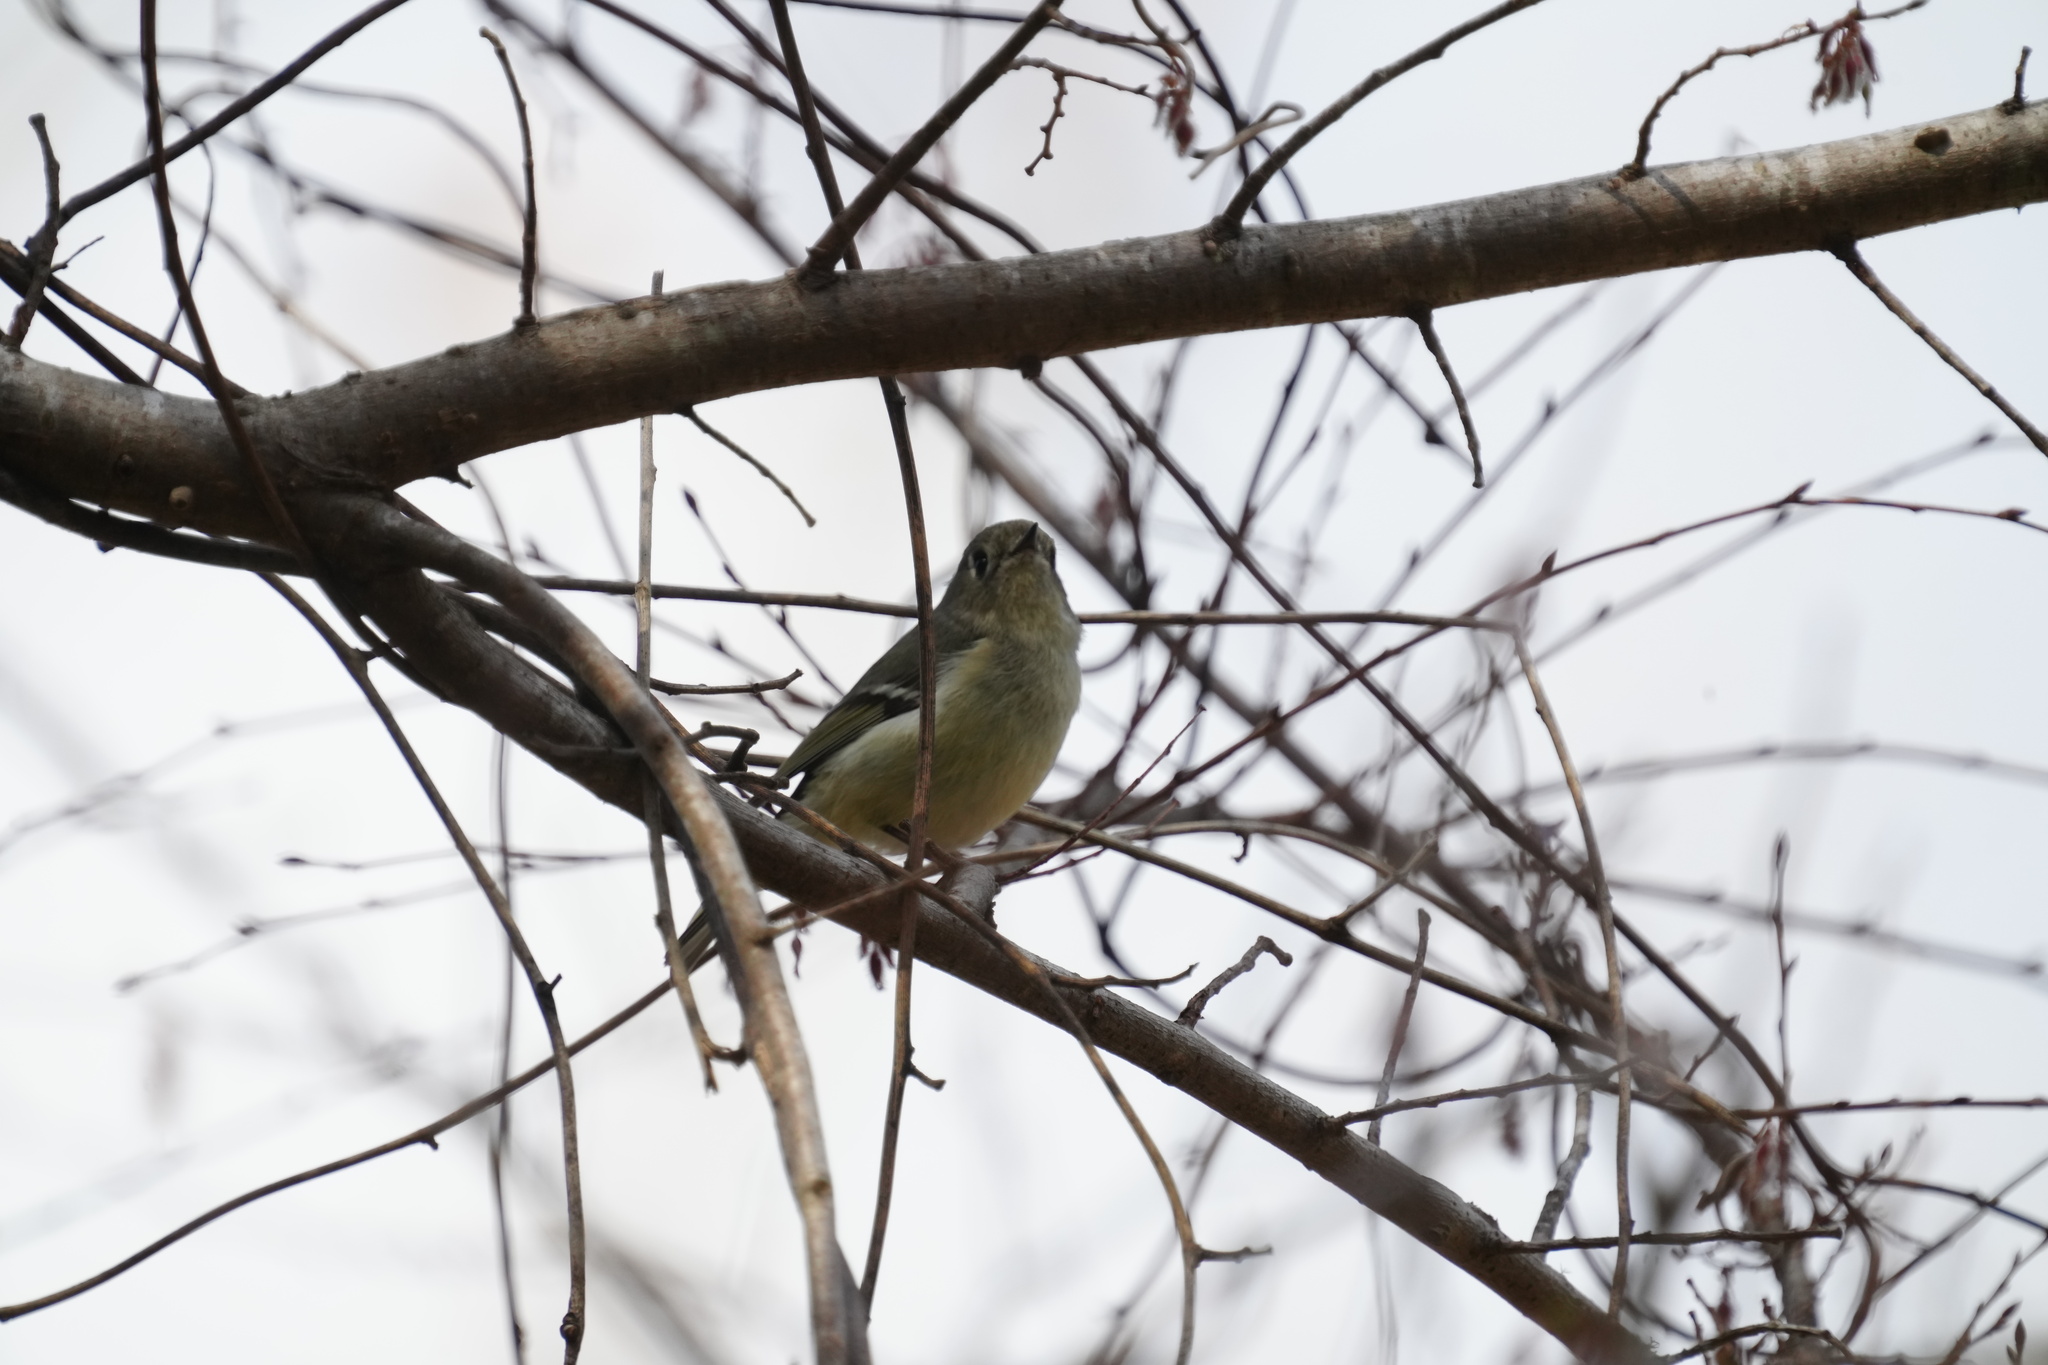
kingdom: Animalia
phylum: Chordata
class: Aves
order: Passeriformes
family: Regulidae
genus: Regulus
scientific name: Regulus calendula
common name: Ruby-crowned kinglet
